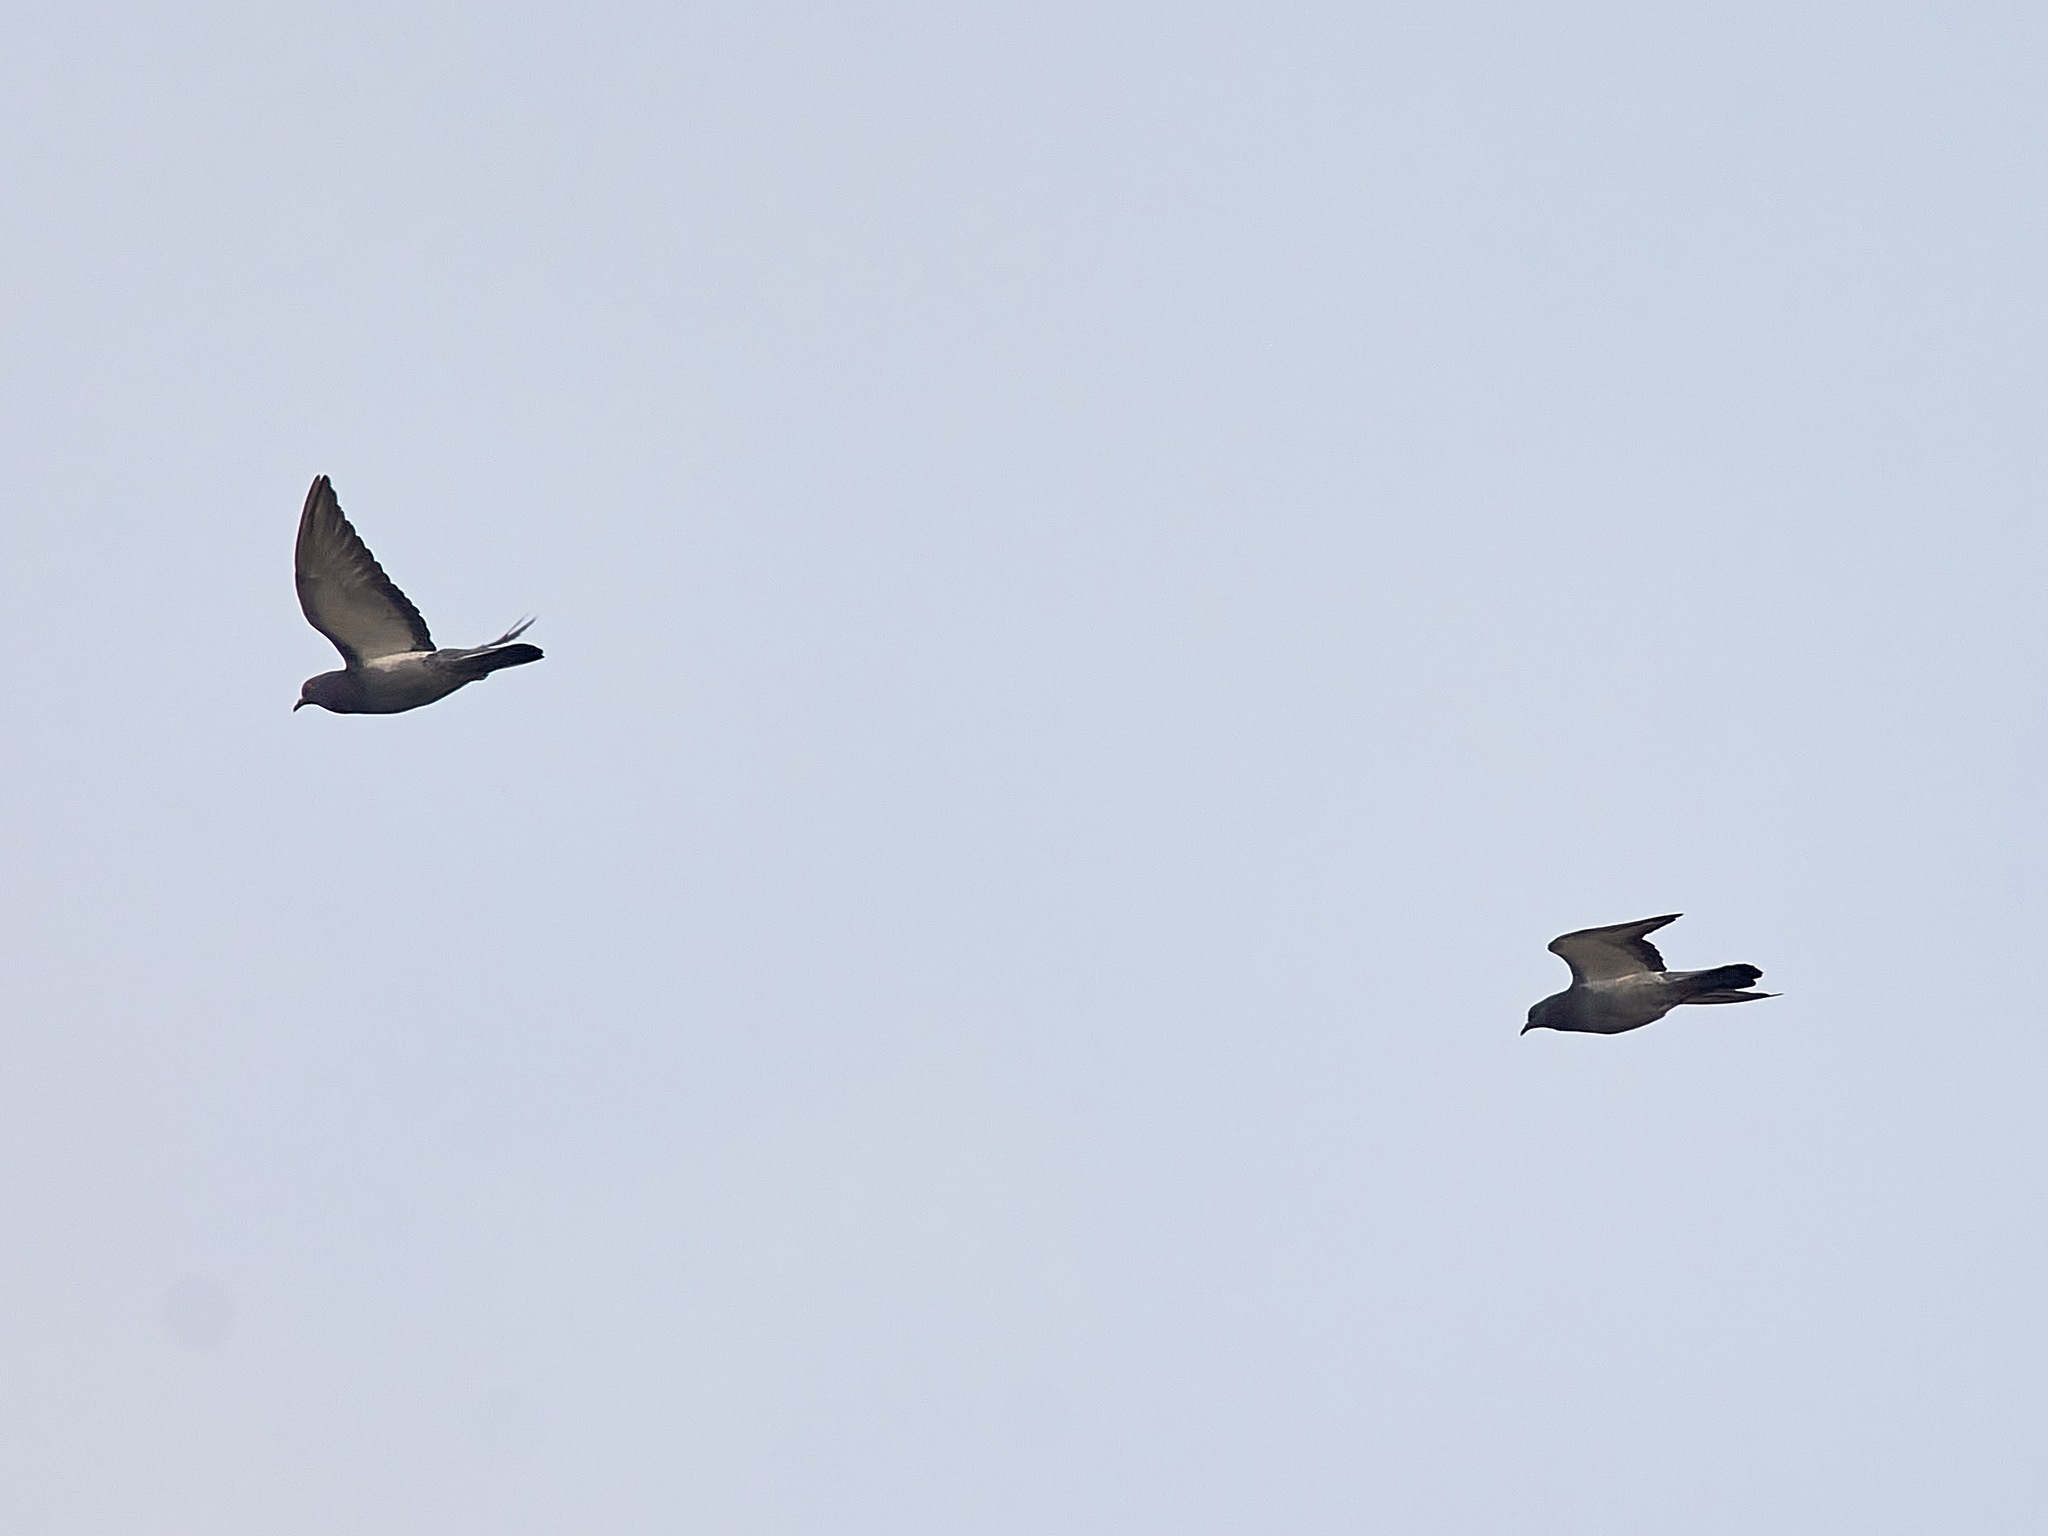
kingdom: Animalia
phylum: Chordata
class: Aves
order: Columbiformes
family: Columbidae
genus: Columba
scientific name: Columba livia
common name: Rock pigeon
